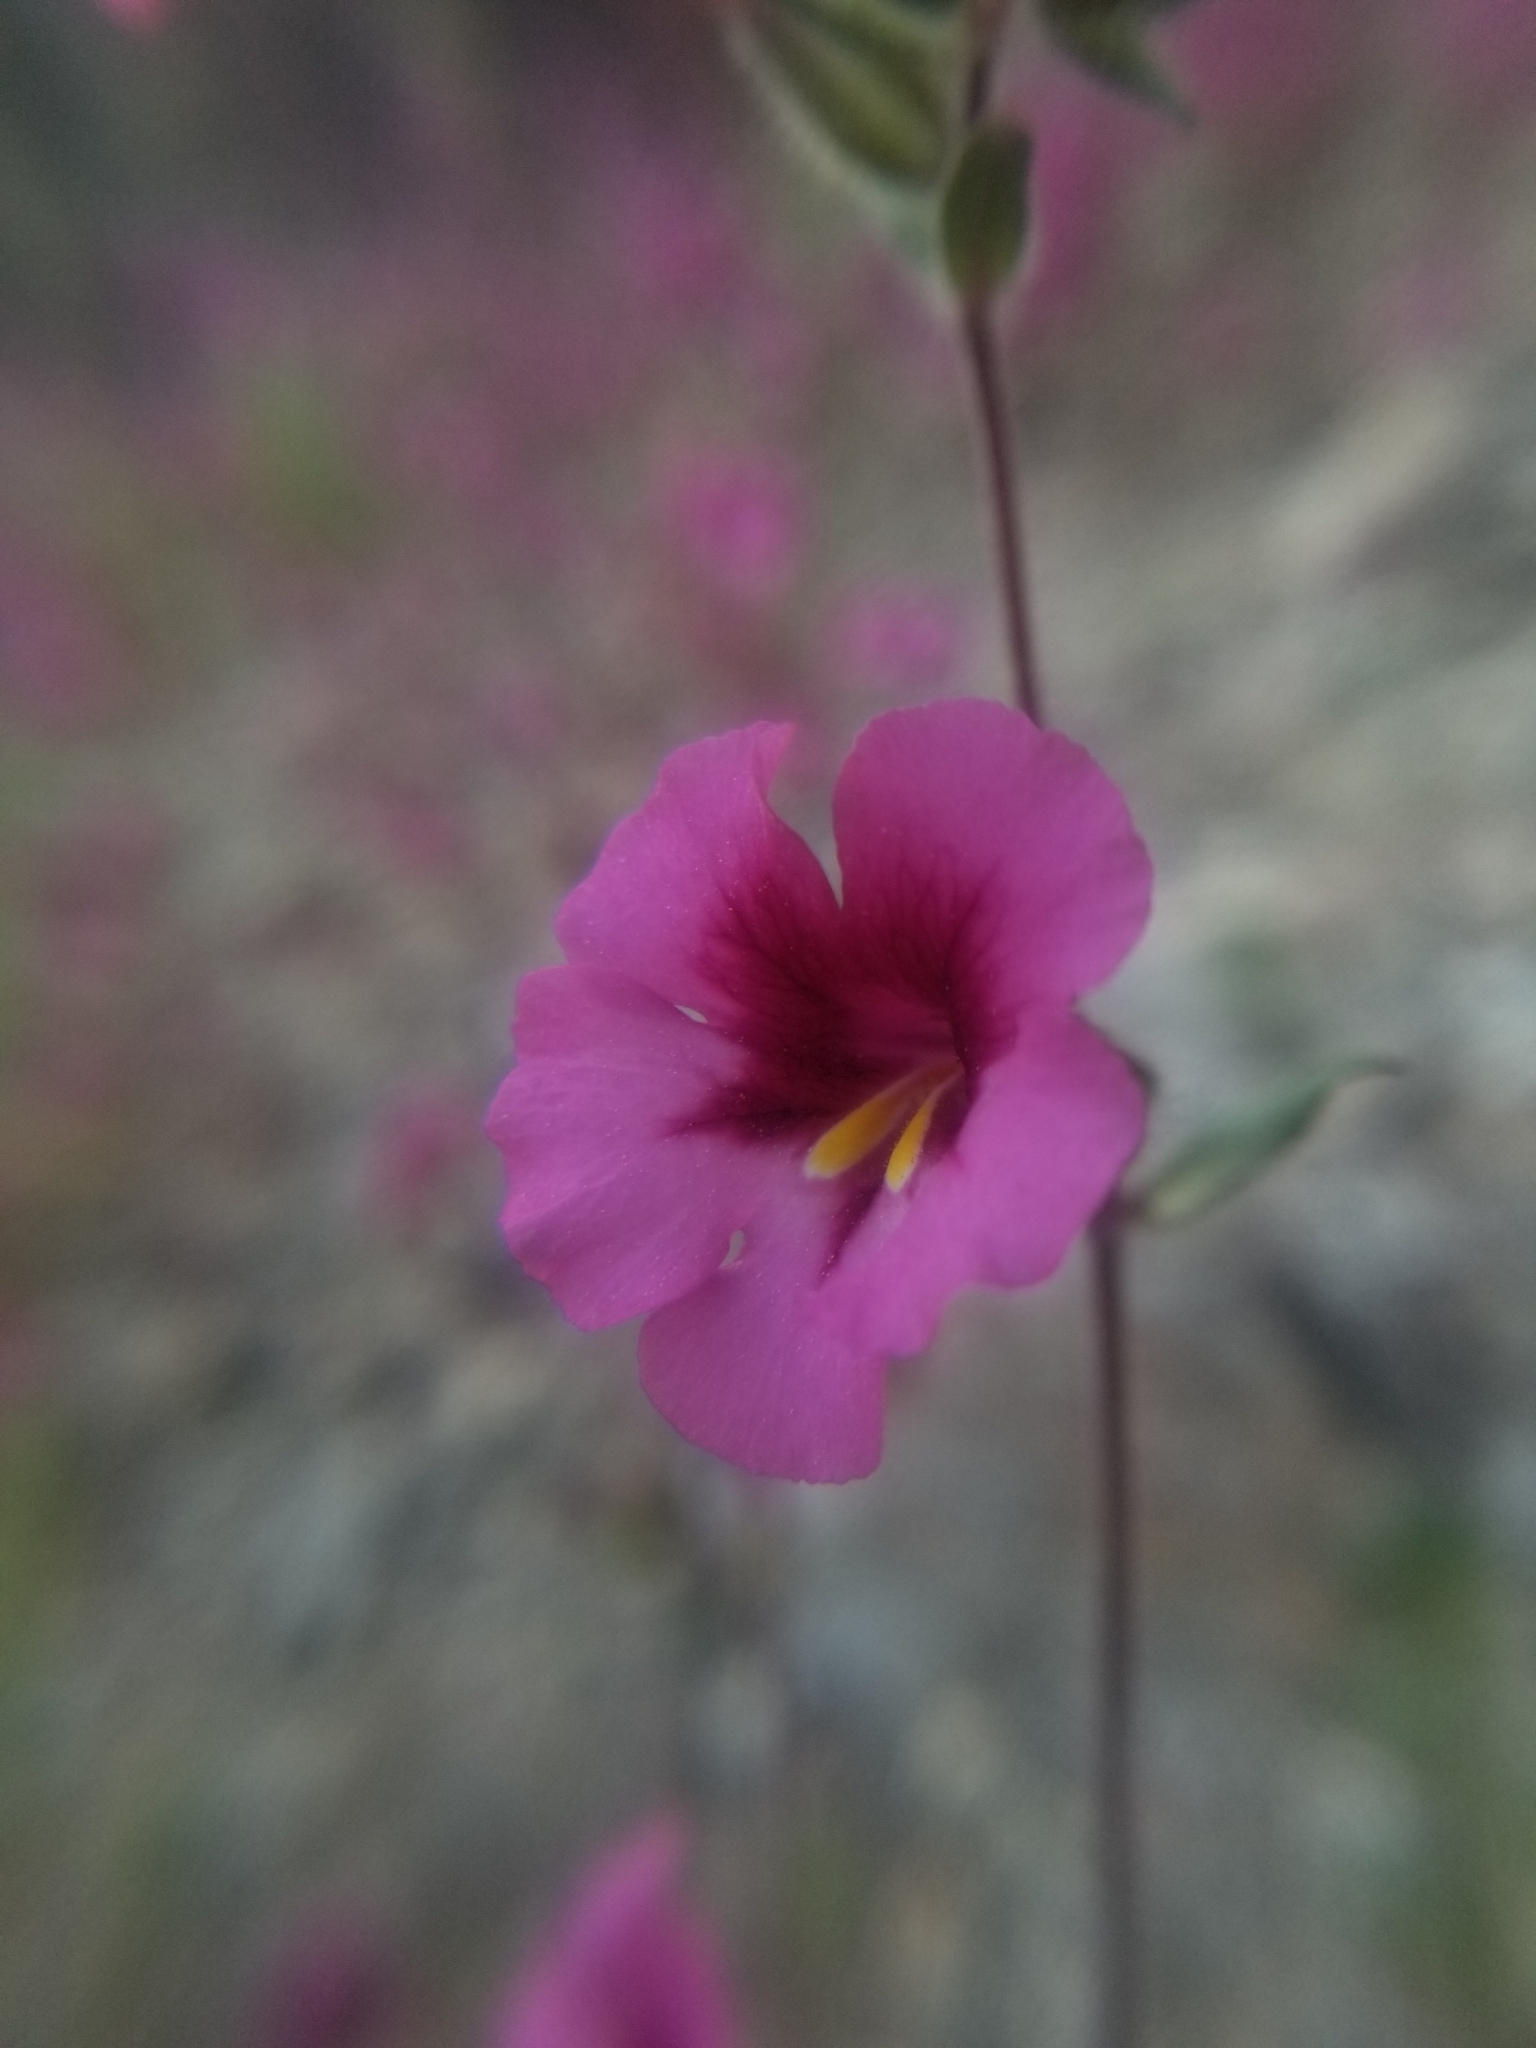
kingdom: Plantae
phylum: Tracheophyta
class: Magnoliopsida
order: Lamiales
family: Phrymaceae
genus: Diplacus
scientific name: Diplacus fremontii
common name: Fremont's monkey-flower
